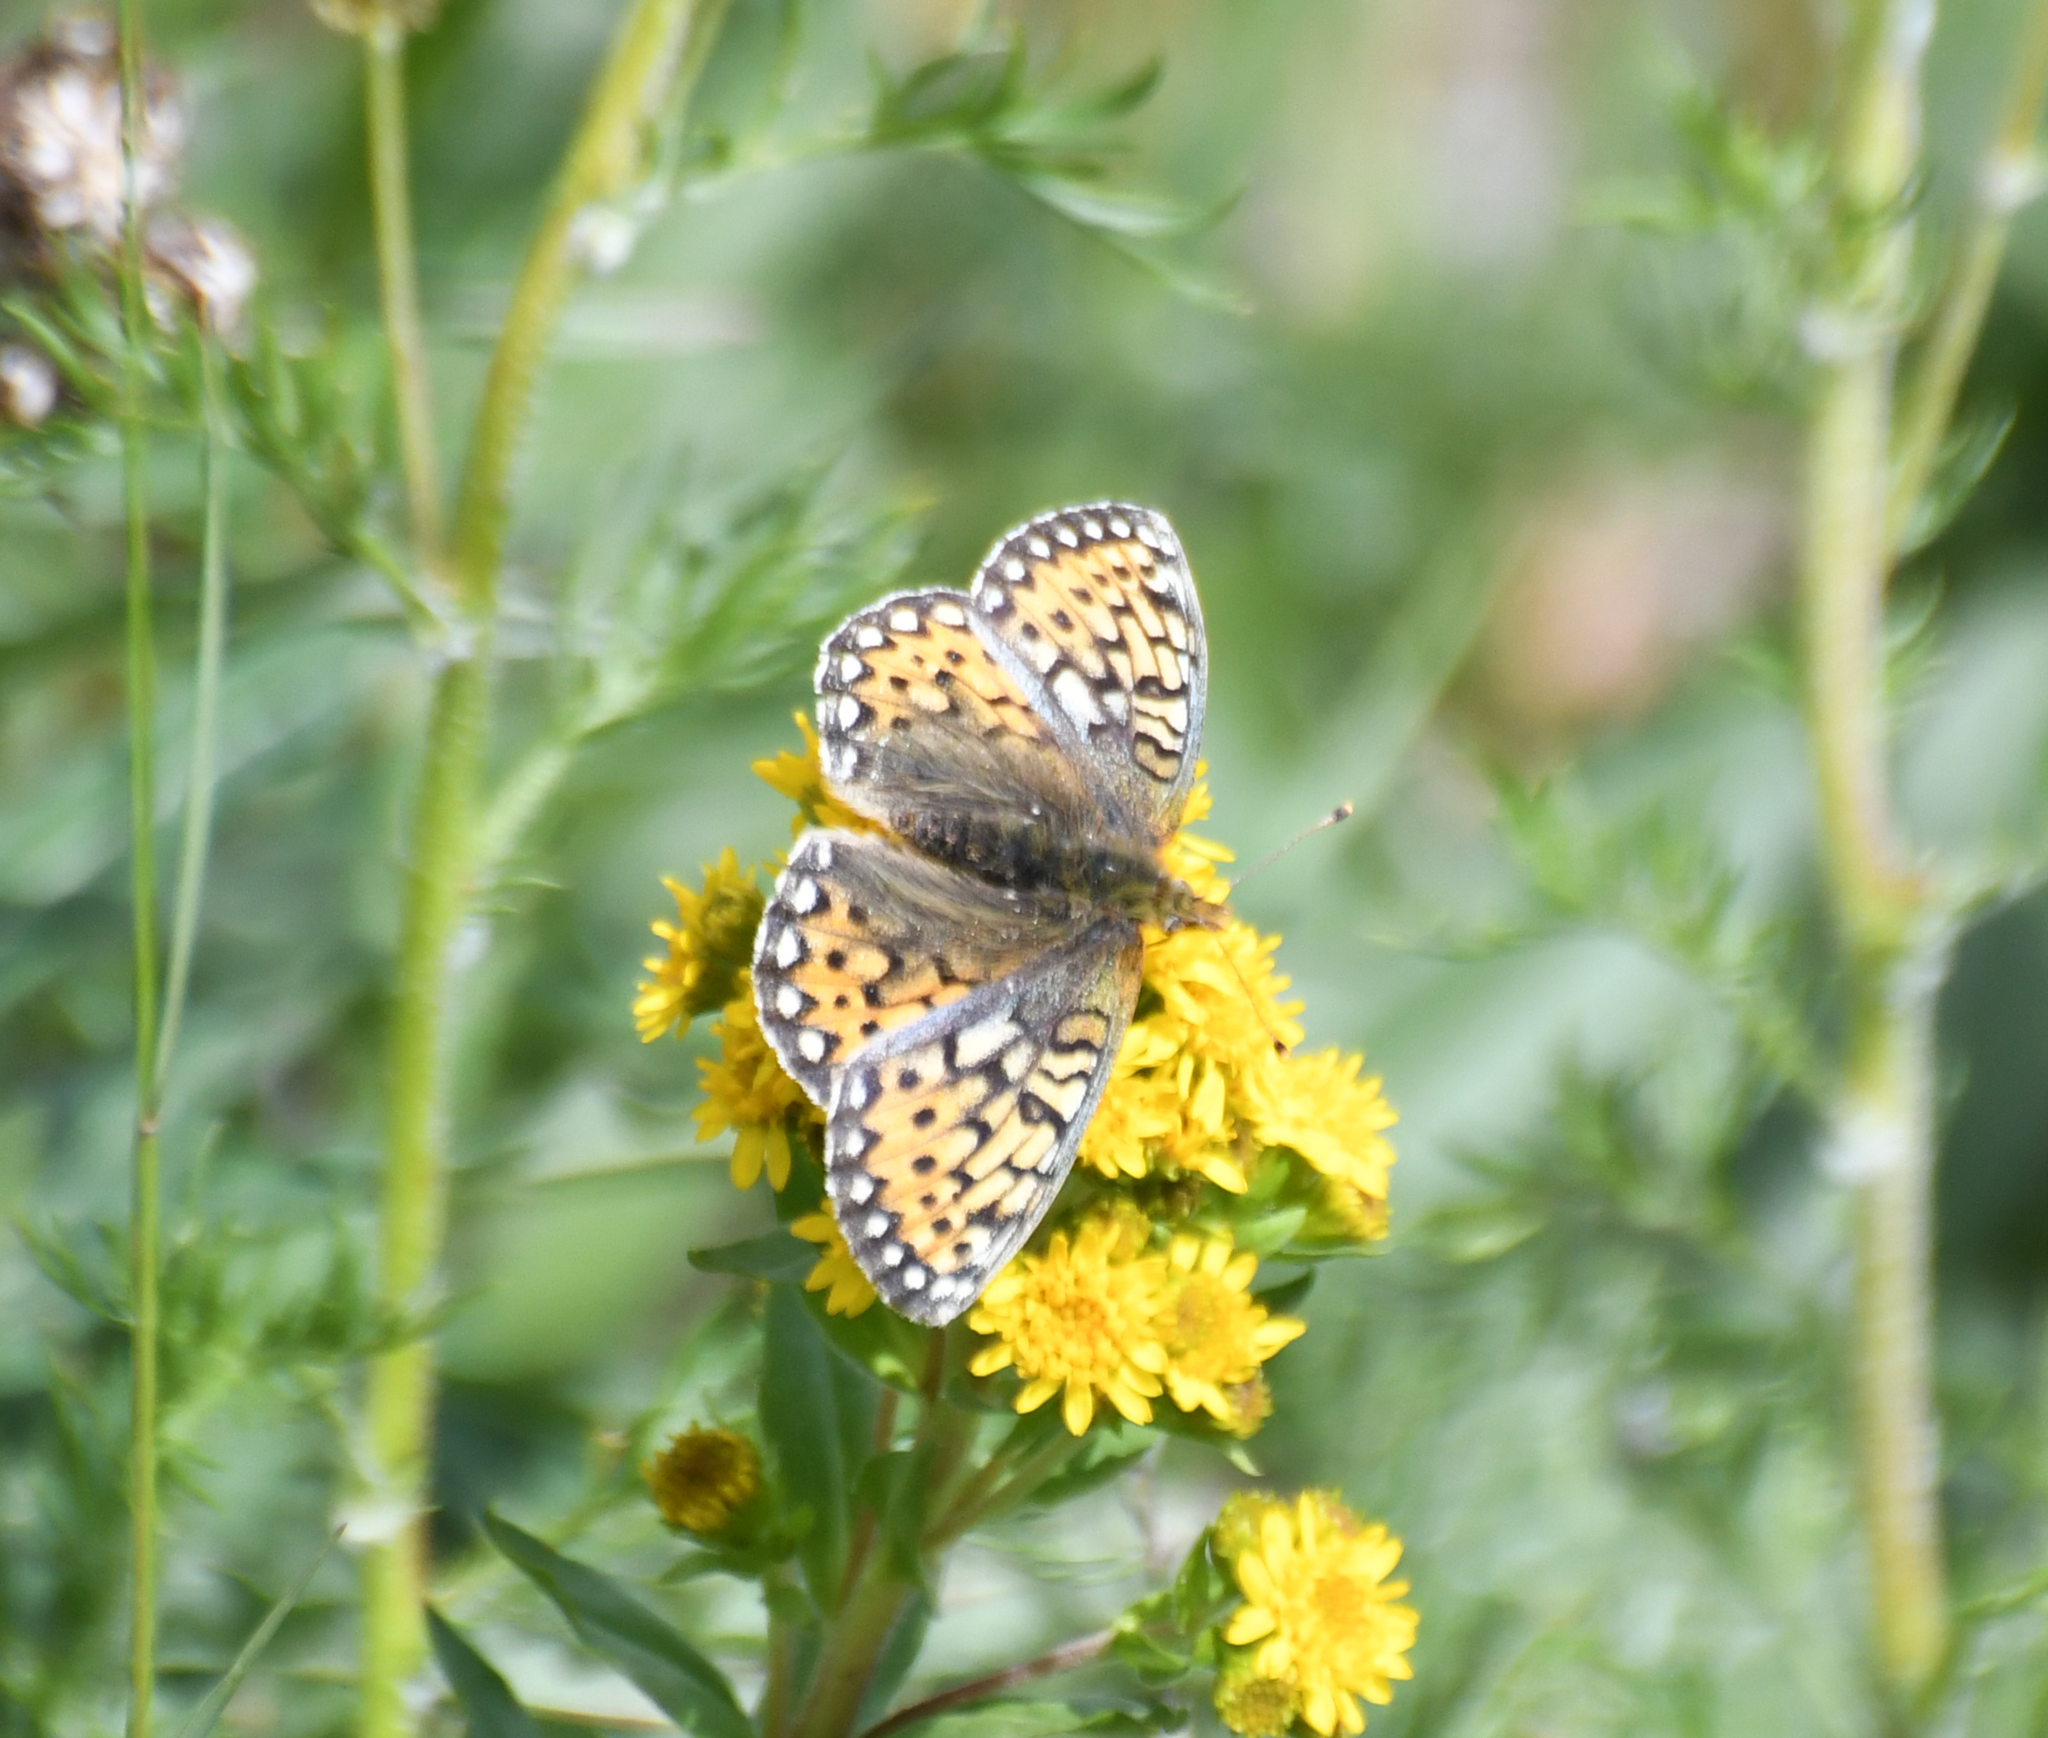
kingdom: Animalia
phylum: Arthropoda
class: Insecta
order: Lepidoptera
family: Nymphalidae
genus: Speyeria
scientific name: Speyeria mormonia
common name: Mormon fritillary
